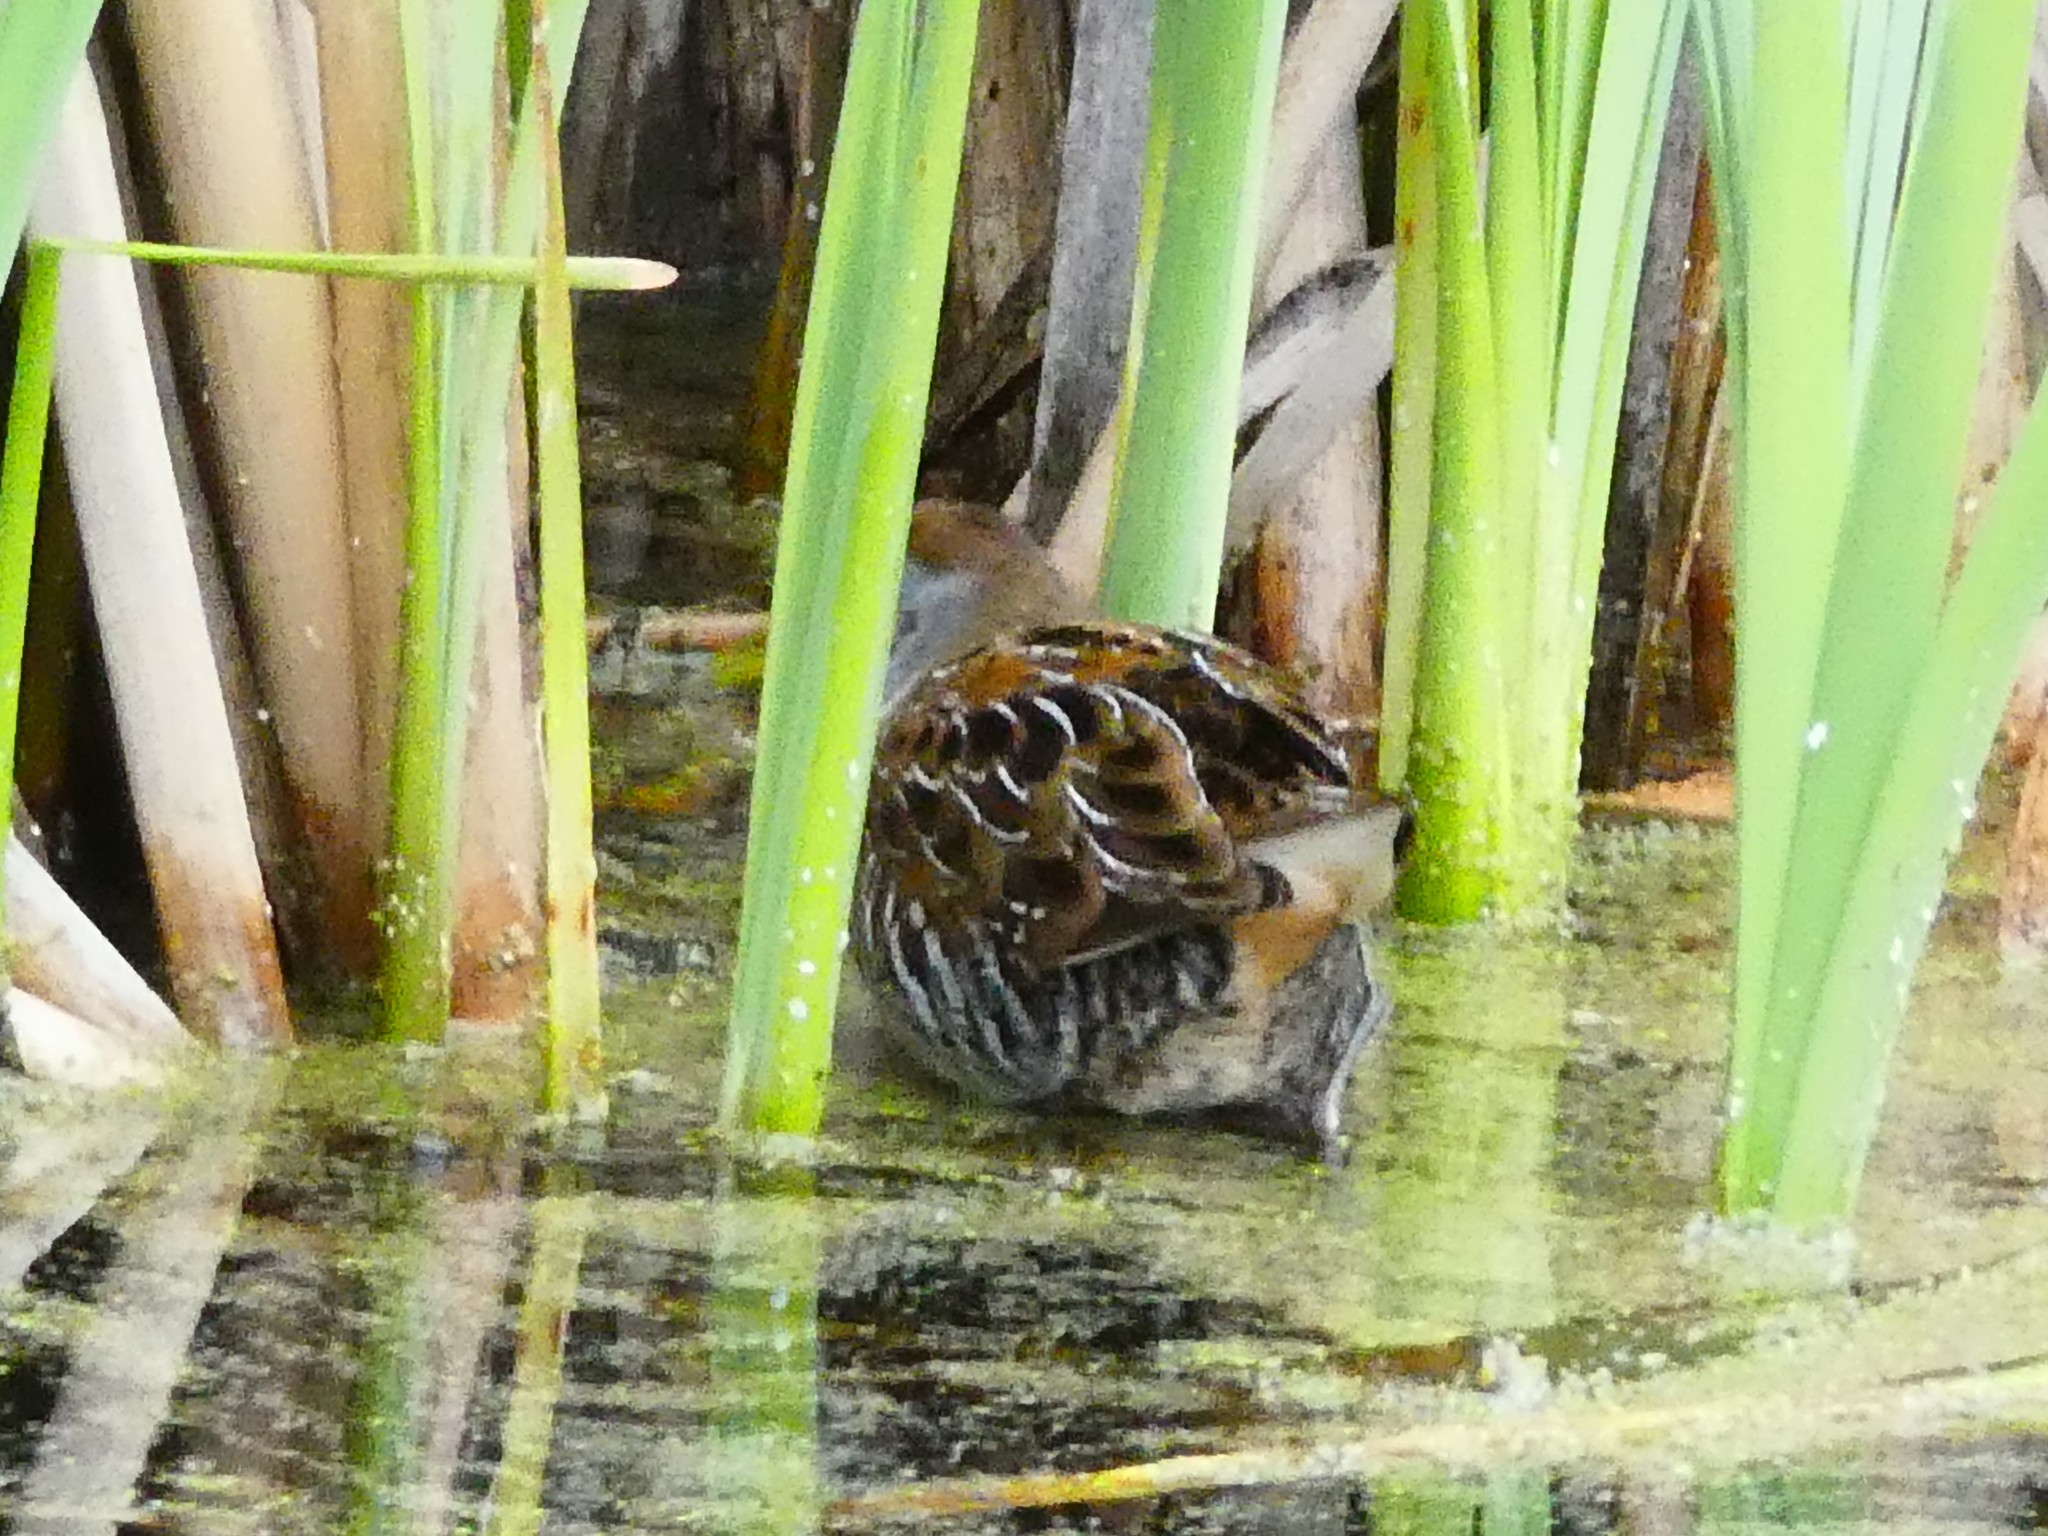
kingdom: Animalia
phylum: Chordata
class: Aves
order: Gruiformes
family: Rallidae
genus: Porzana
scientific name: Porzana carolina
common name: Sora
